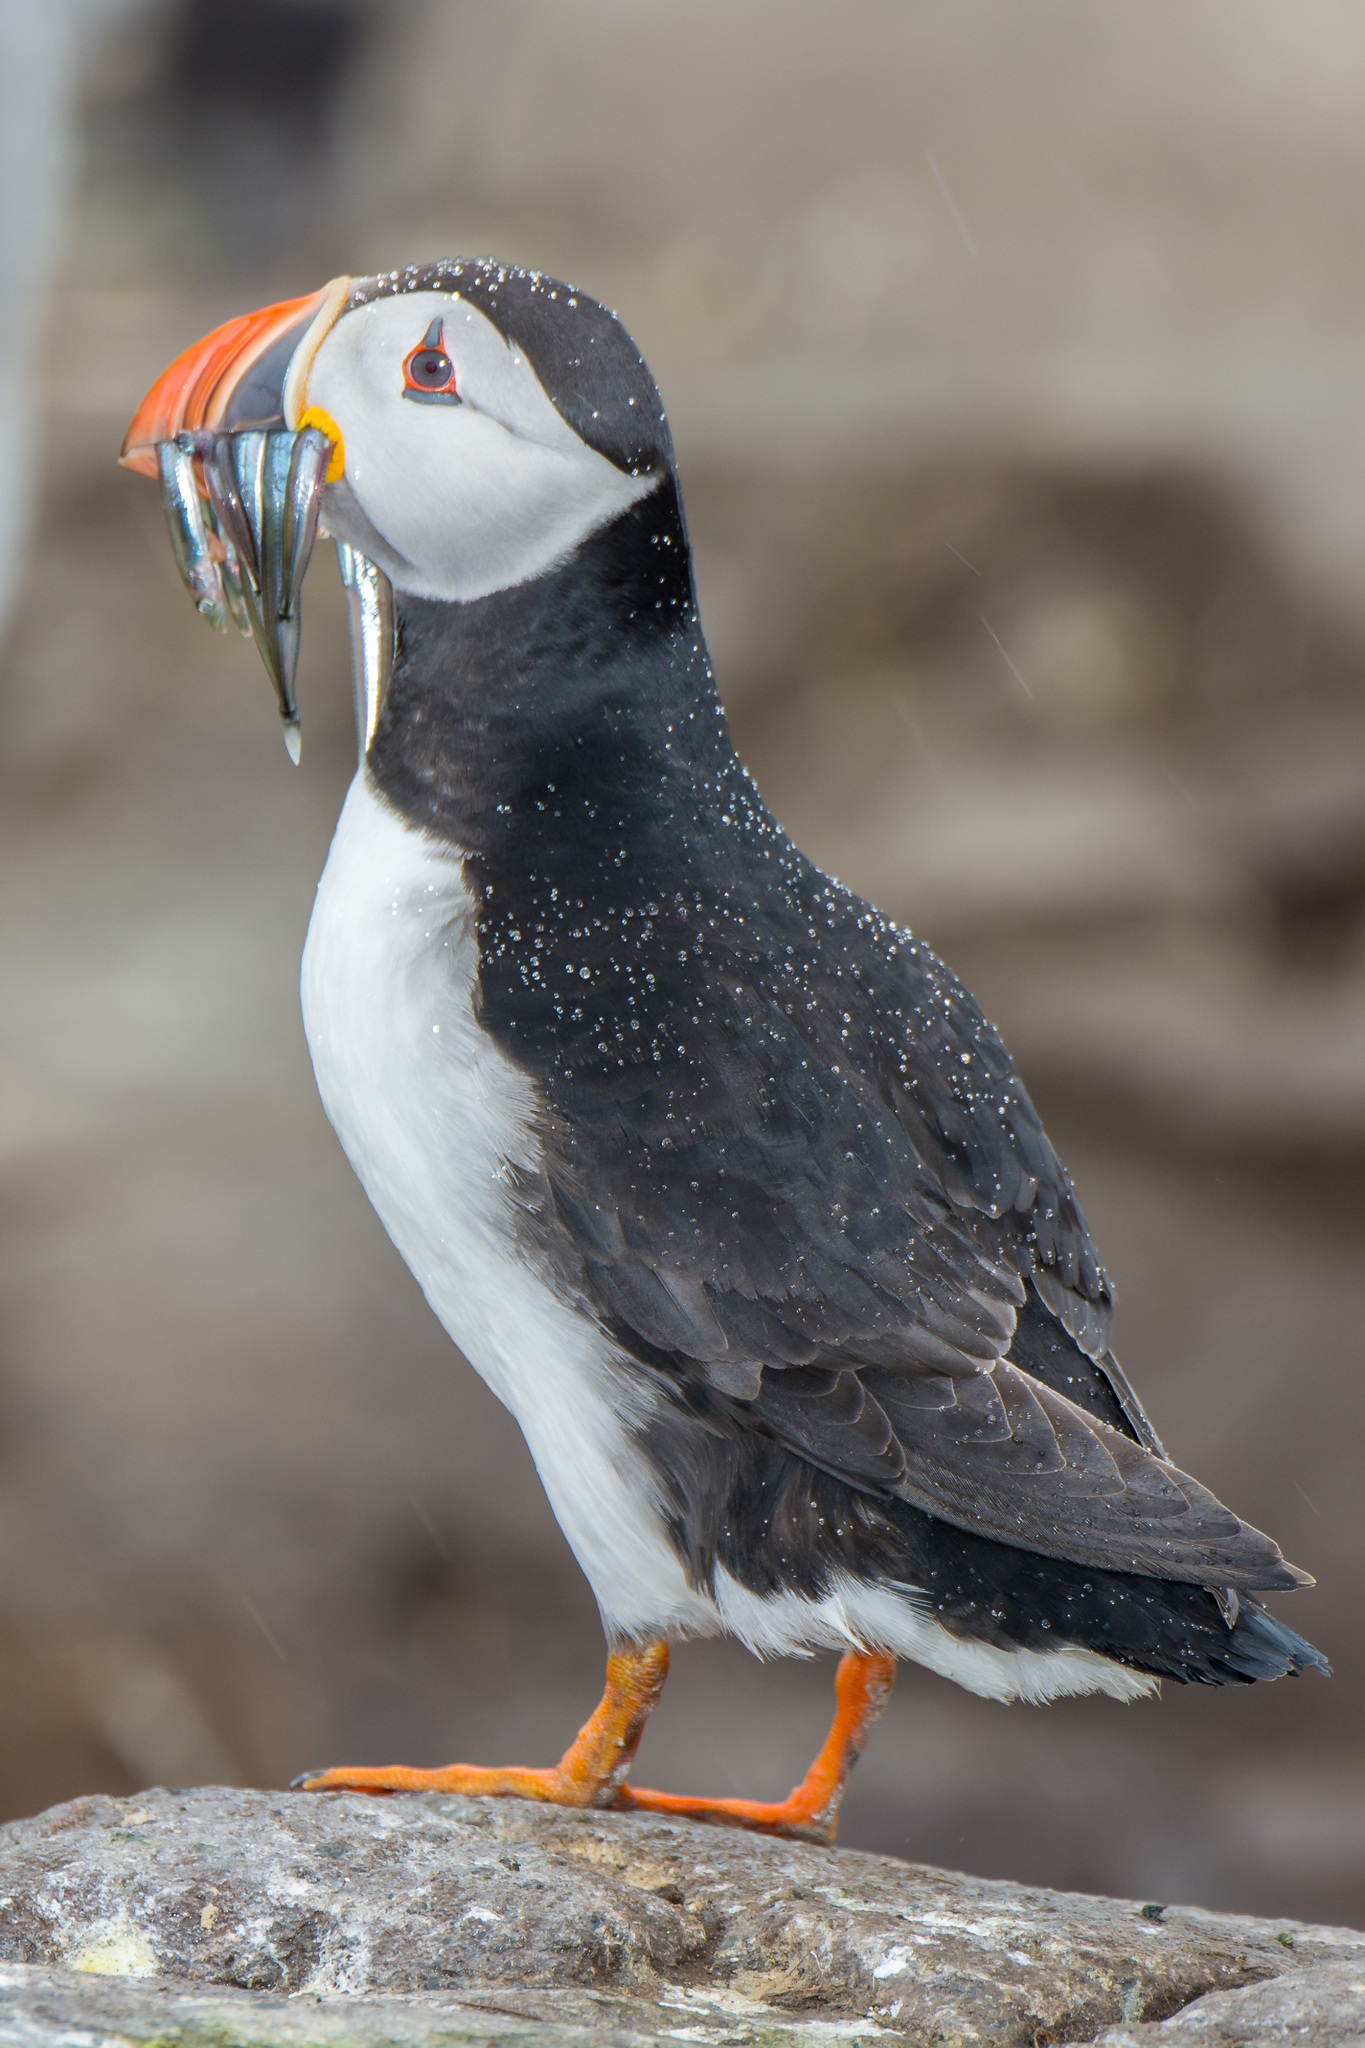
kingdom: Animalia
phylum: Chordata
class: Aves
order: Charadriiformes
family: Alcidae
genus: Fratercula
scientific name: Fratercula arctica
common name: Atlantic puffin
